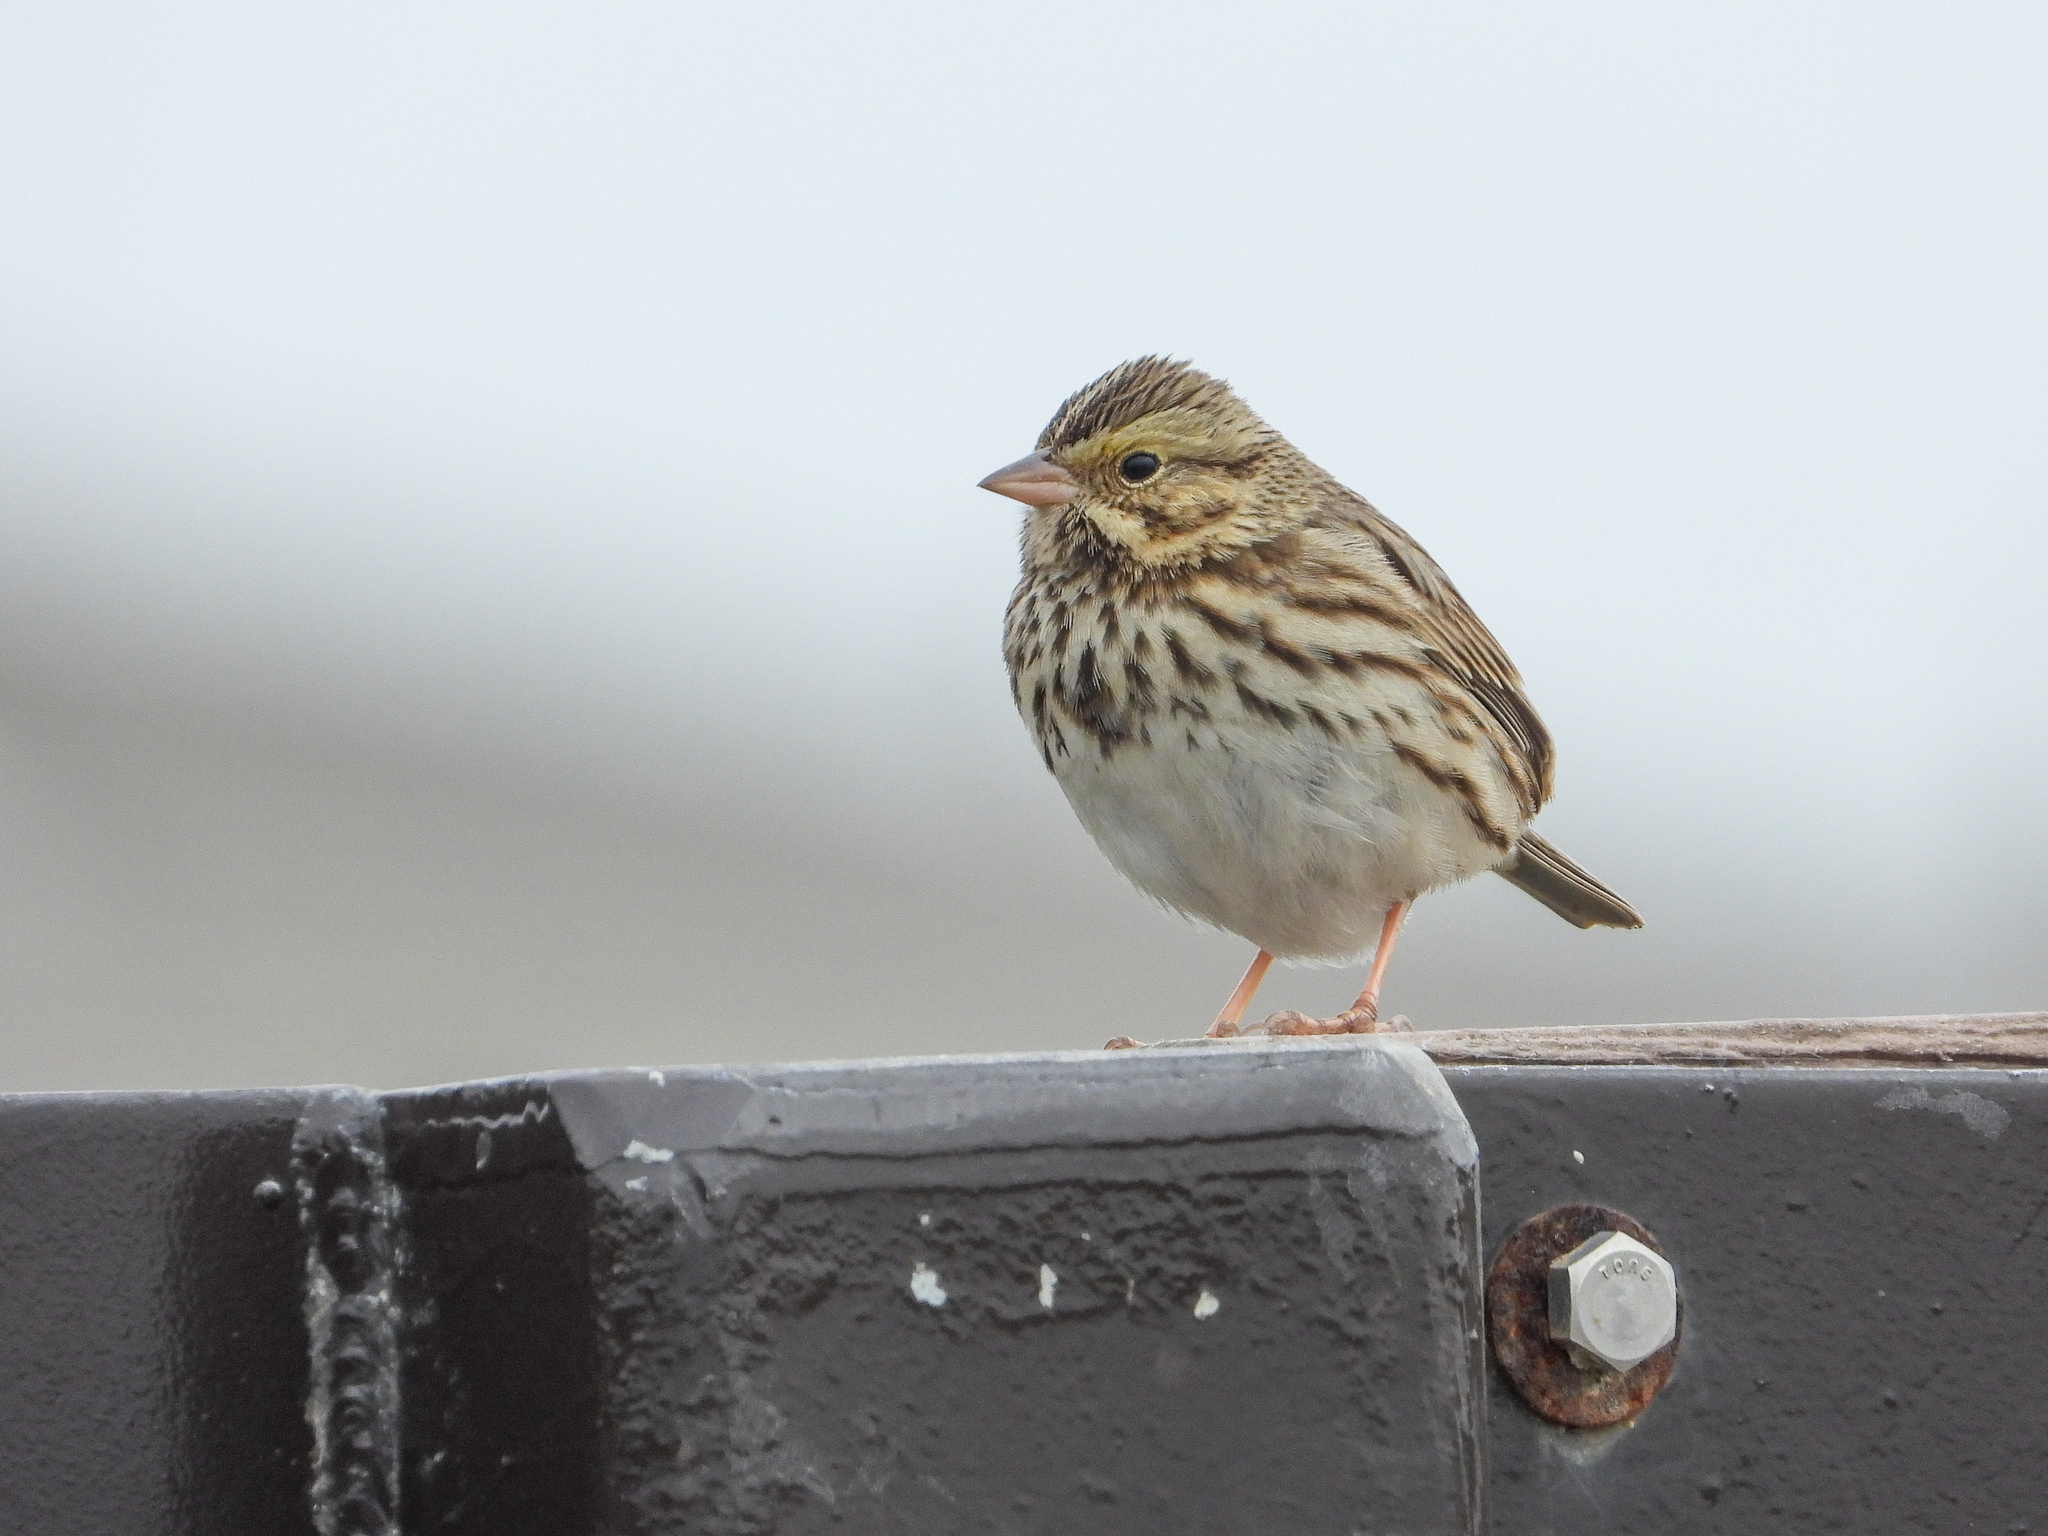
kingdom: Animalia
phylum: Chordata
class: Aves
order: Passeriformes
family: Passerellidae
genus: Passerculus
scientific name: Passerculus sandwichensis
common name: Savannah sparrow
